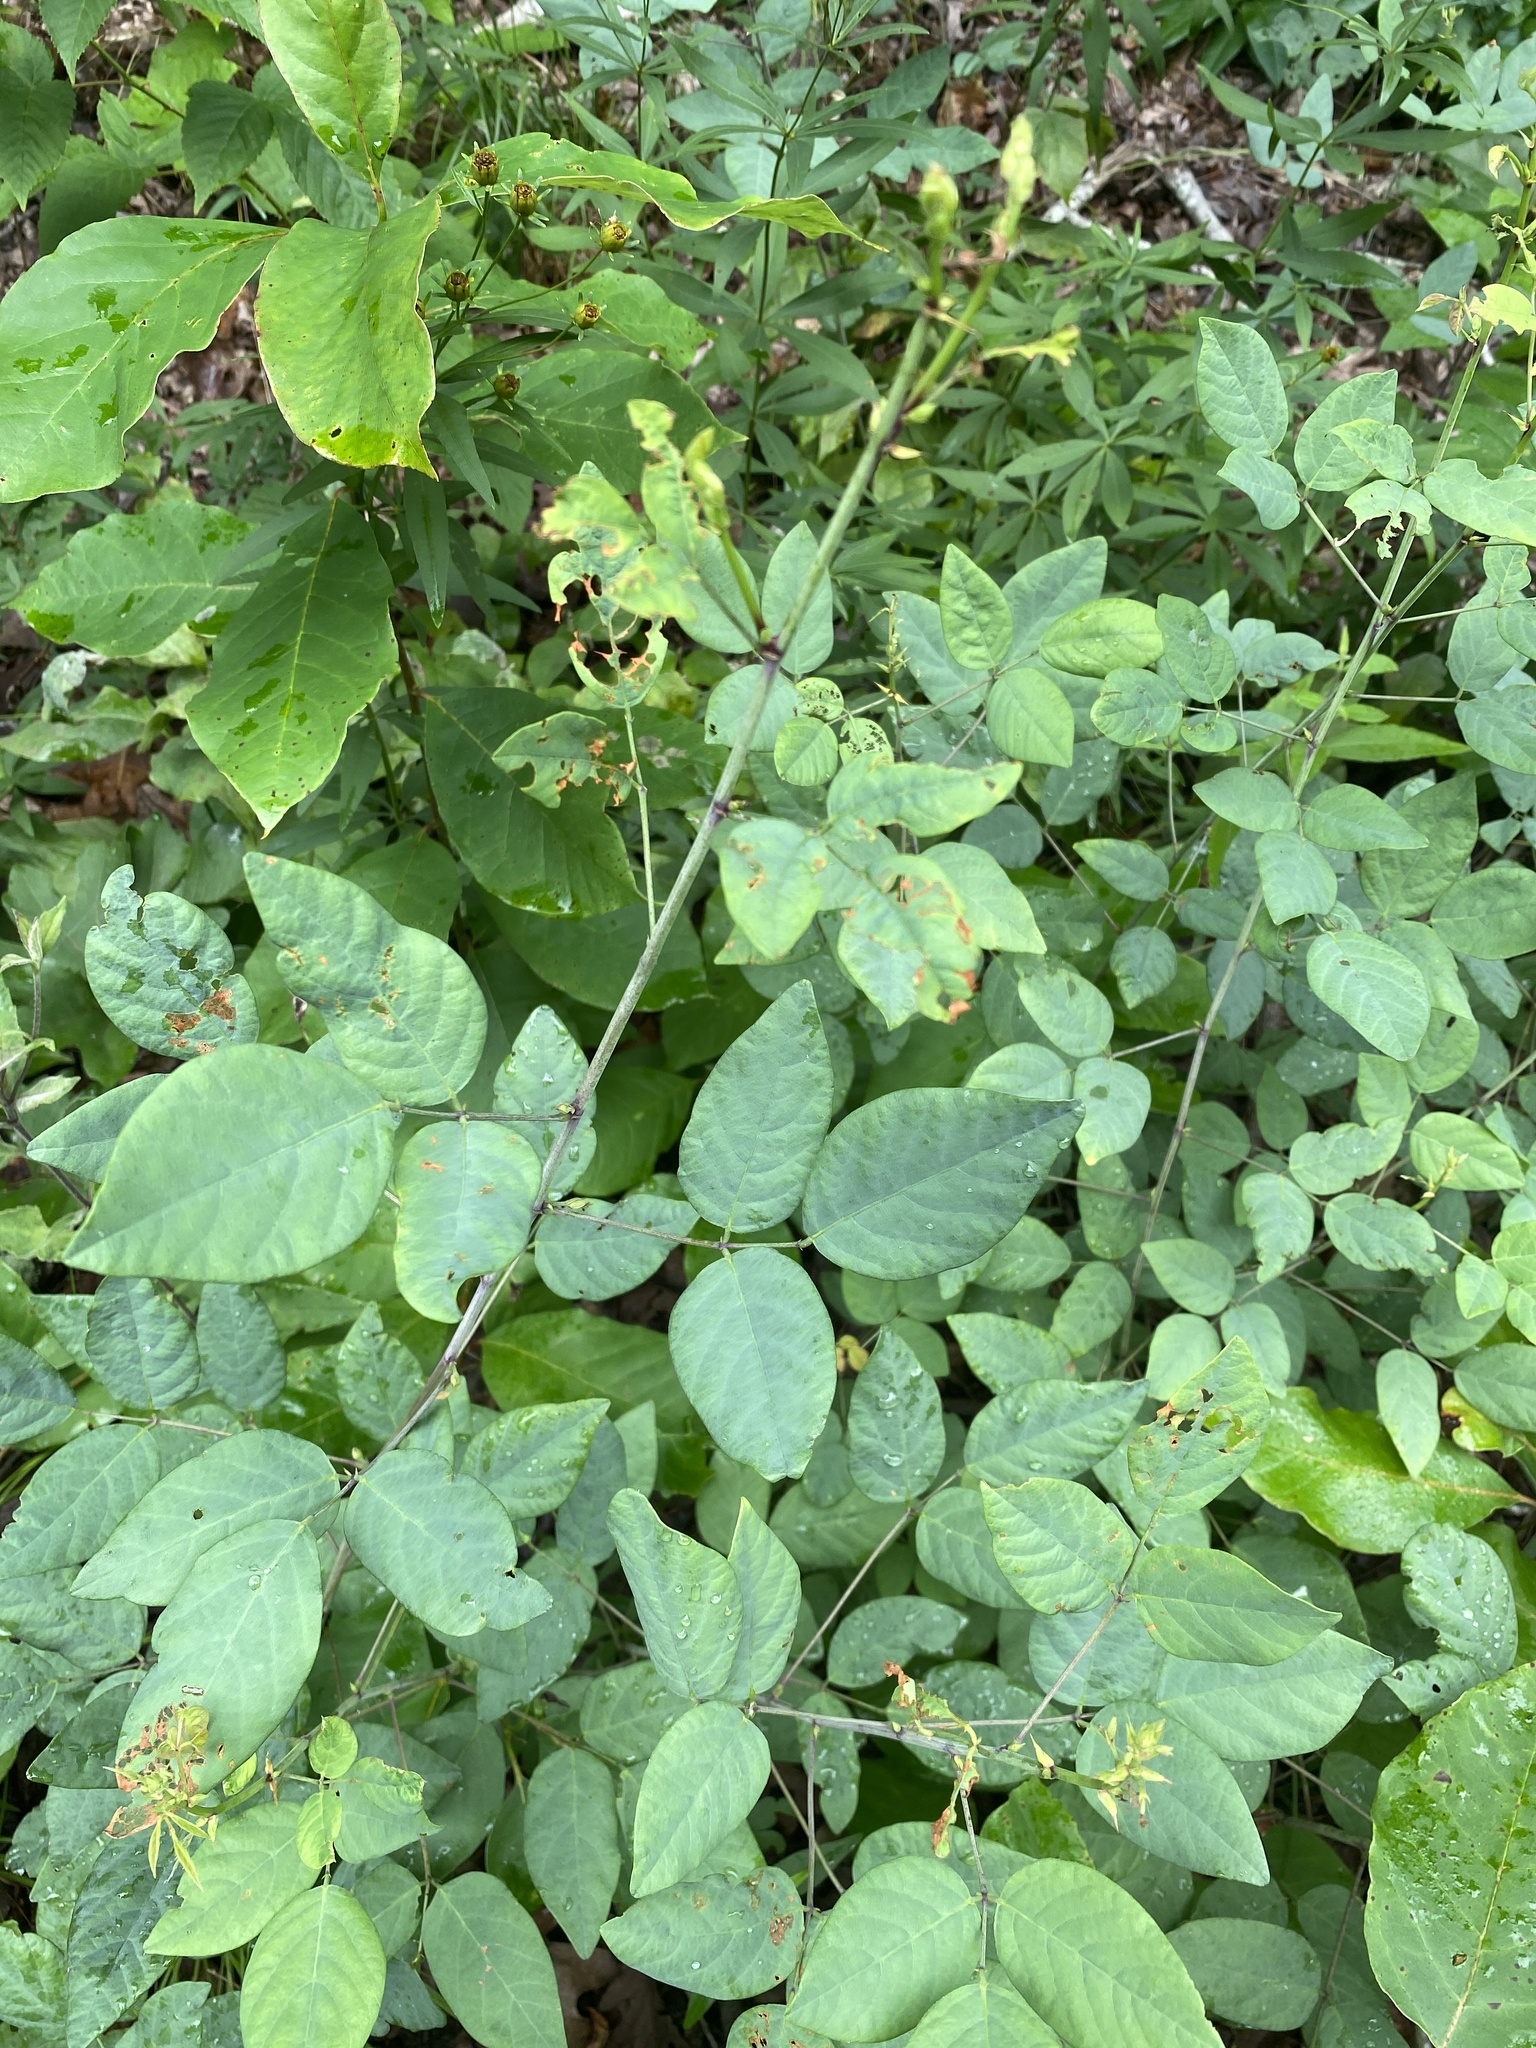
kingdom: Plantae
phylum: Tracheophyta
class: Magnoliopsida
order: Fabales
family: Fabaceae
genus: Desmodium
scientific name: Desmodium laevigatum
